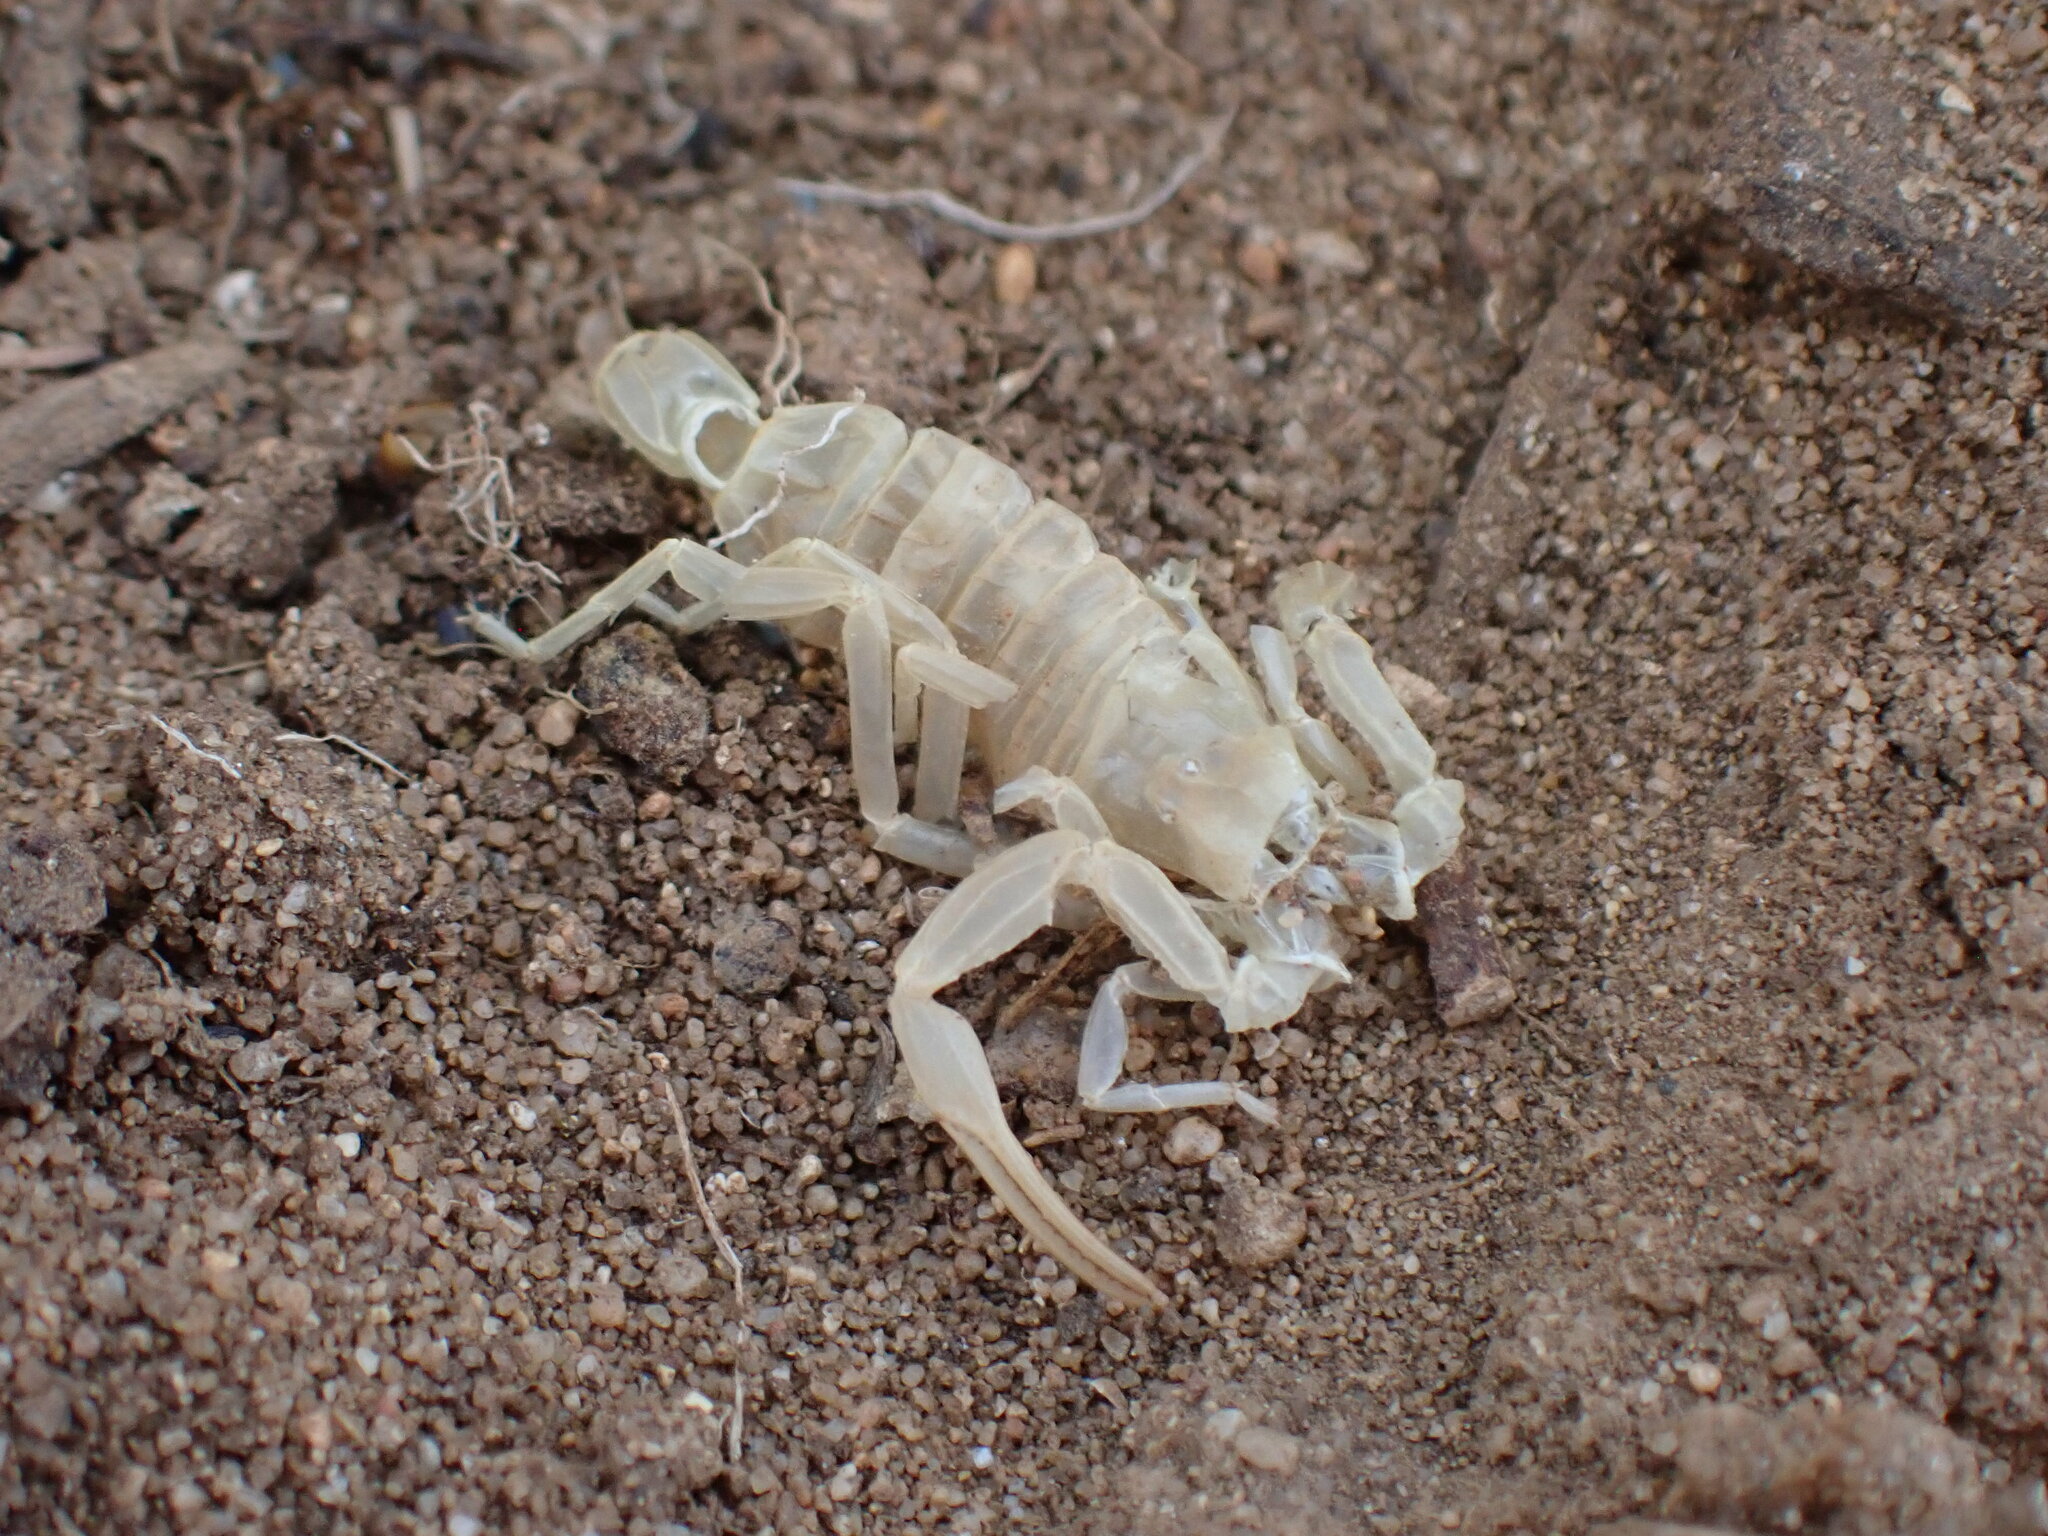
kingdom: Animalia
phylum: Arthropoda
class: Arachnida
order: Scorpiones
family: Buthidae
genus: Buthus
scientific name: Buthus occitanus
